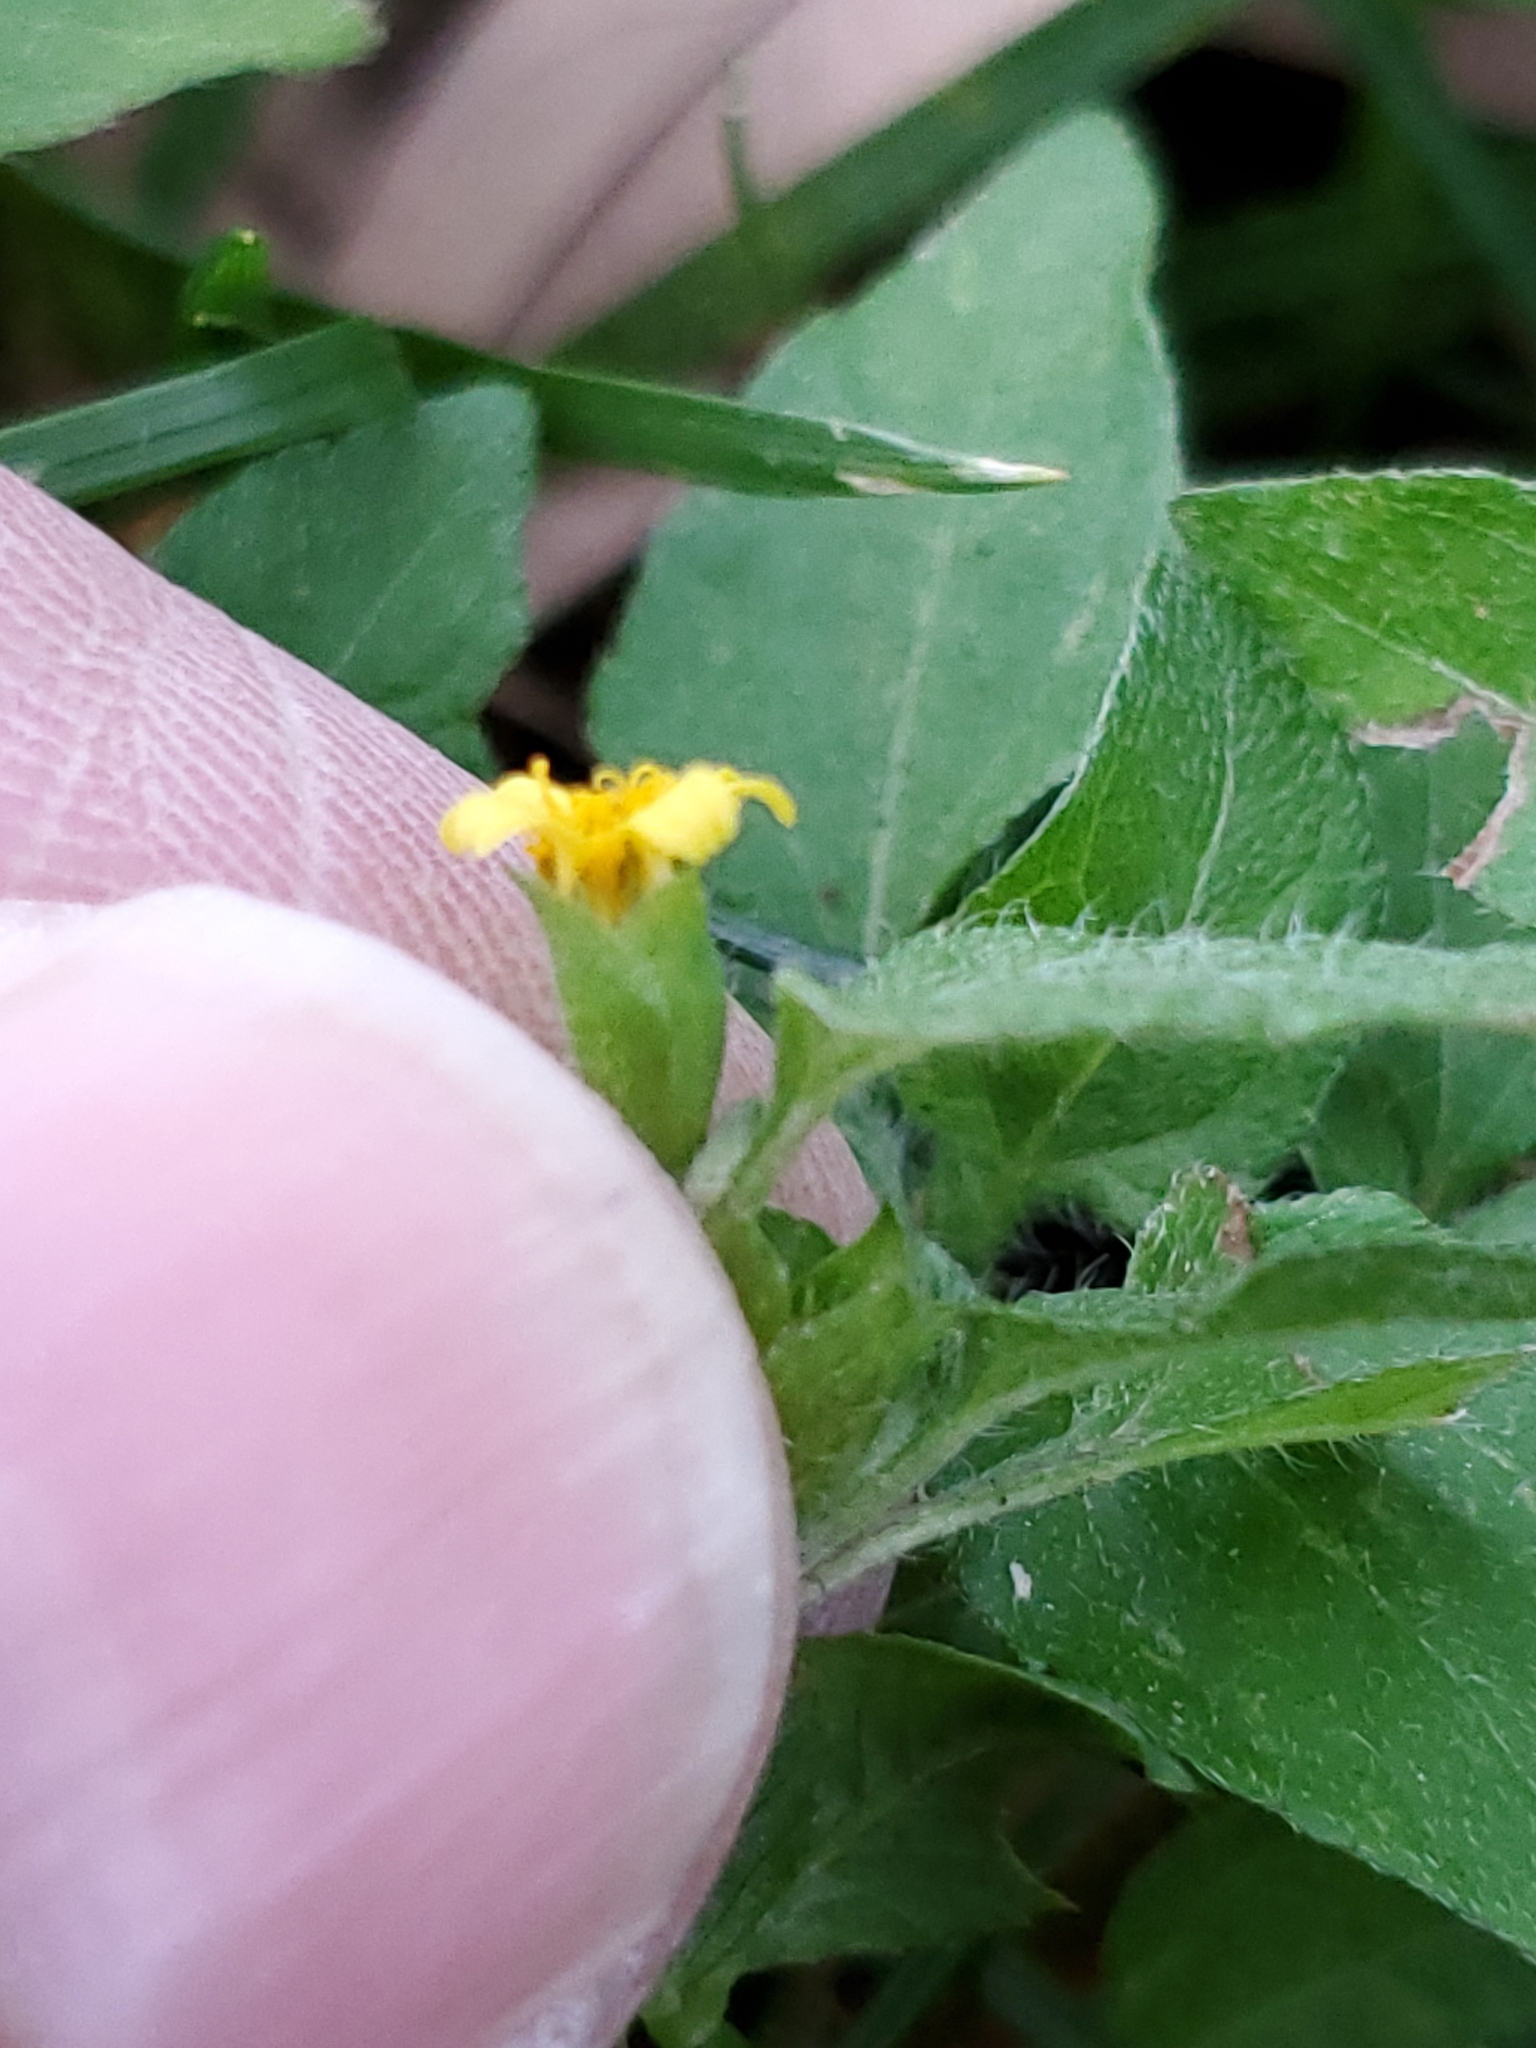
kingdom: Plantae
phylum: Tracheophyta
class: Magnoliopsida
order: Asterales
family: Asteraceae
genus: Calyptocarpus
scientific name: Calyptocarpus vialis
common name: Straggler daisy
